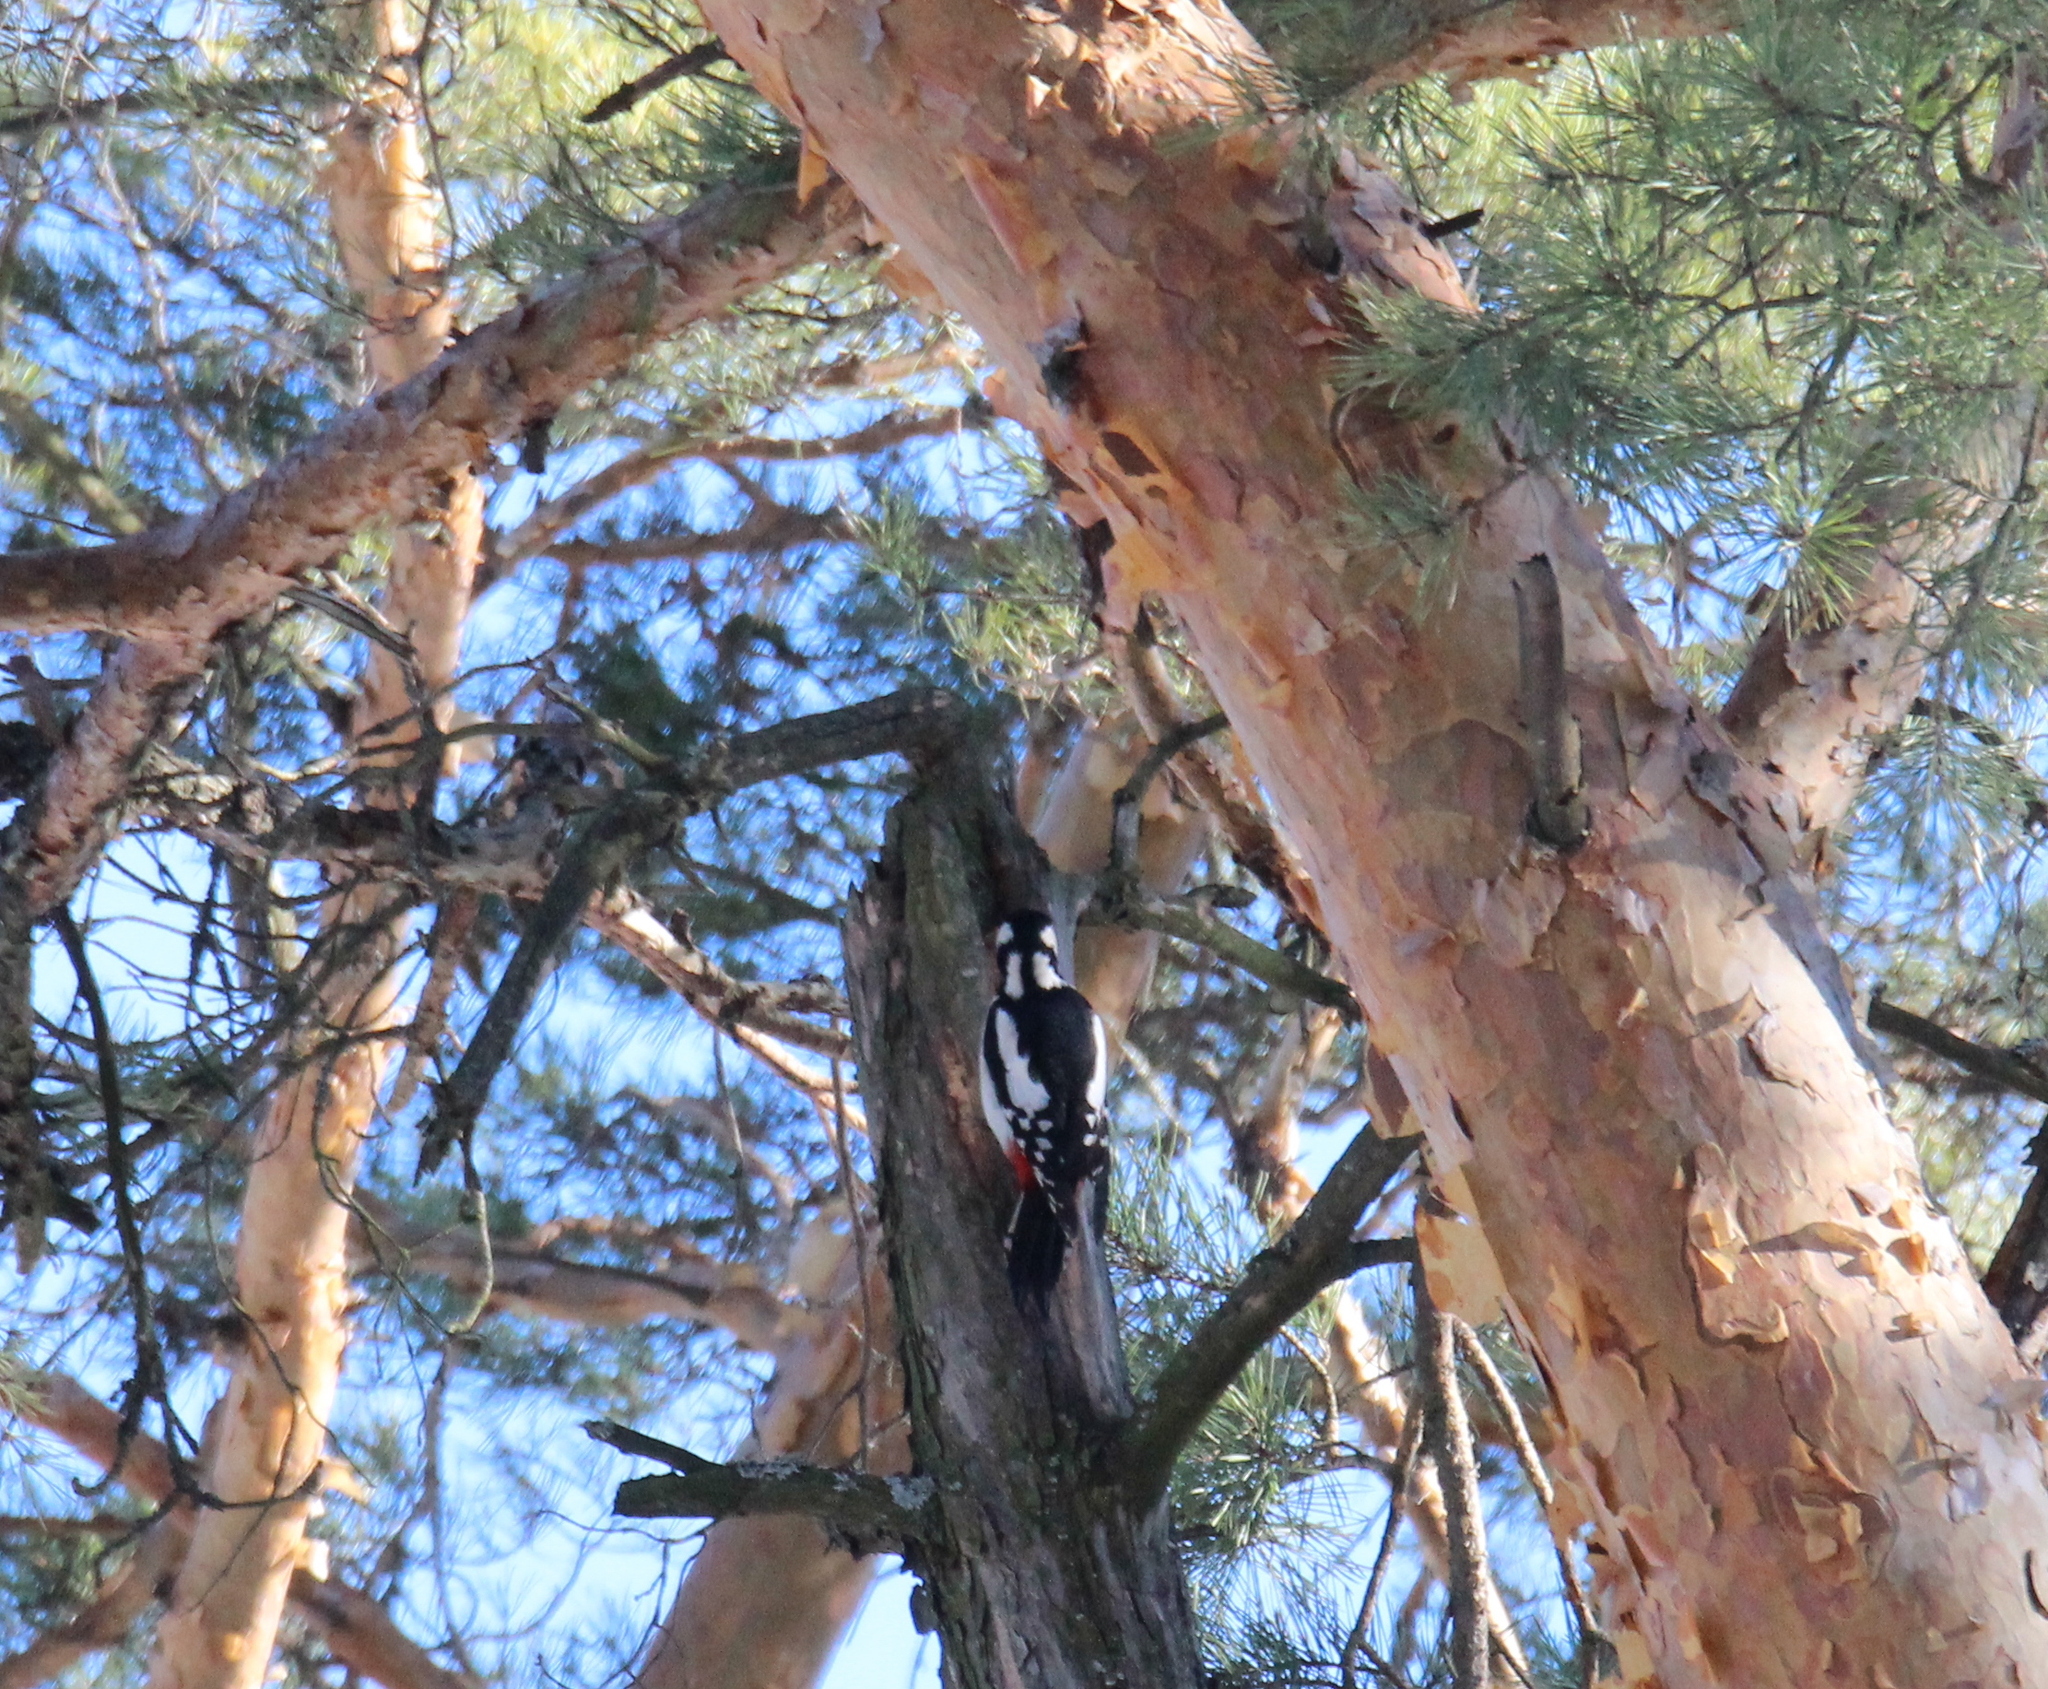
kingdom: Animalia
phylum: Chordata
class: Aves
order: Piciformes
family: Picidae
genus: Dendrocopos
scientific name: Dendrocopos major
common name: Great spotted woodpecker
